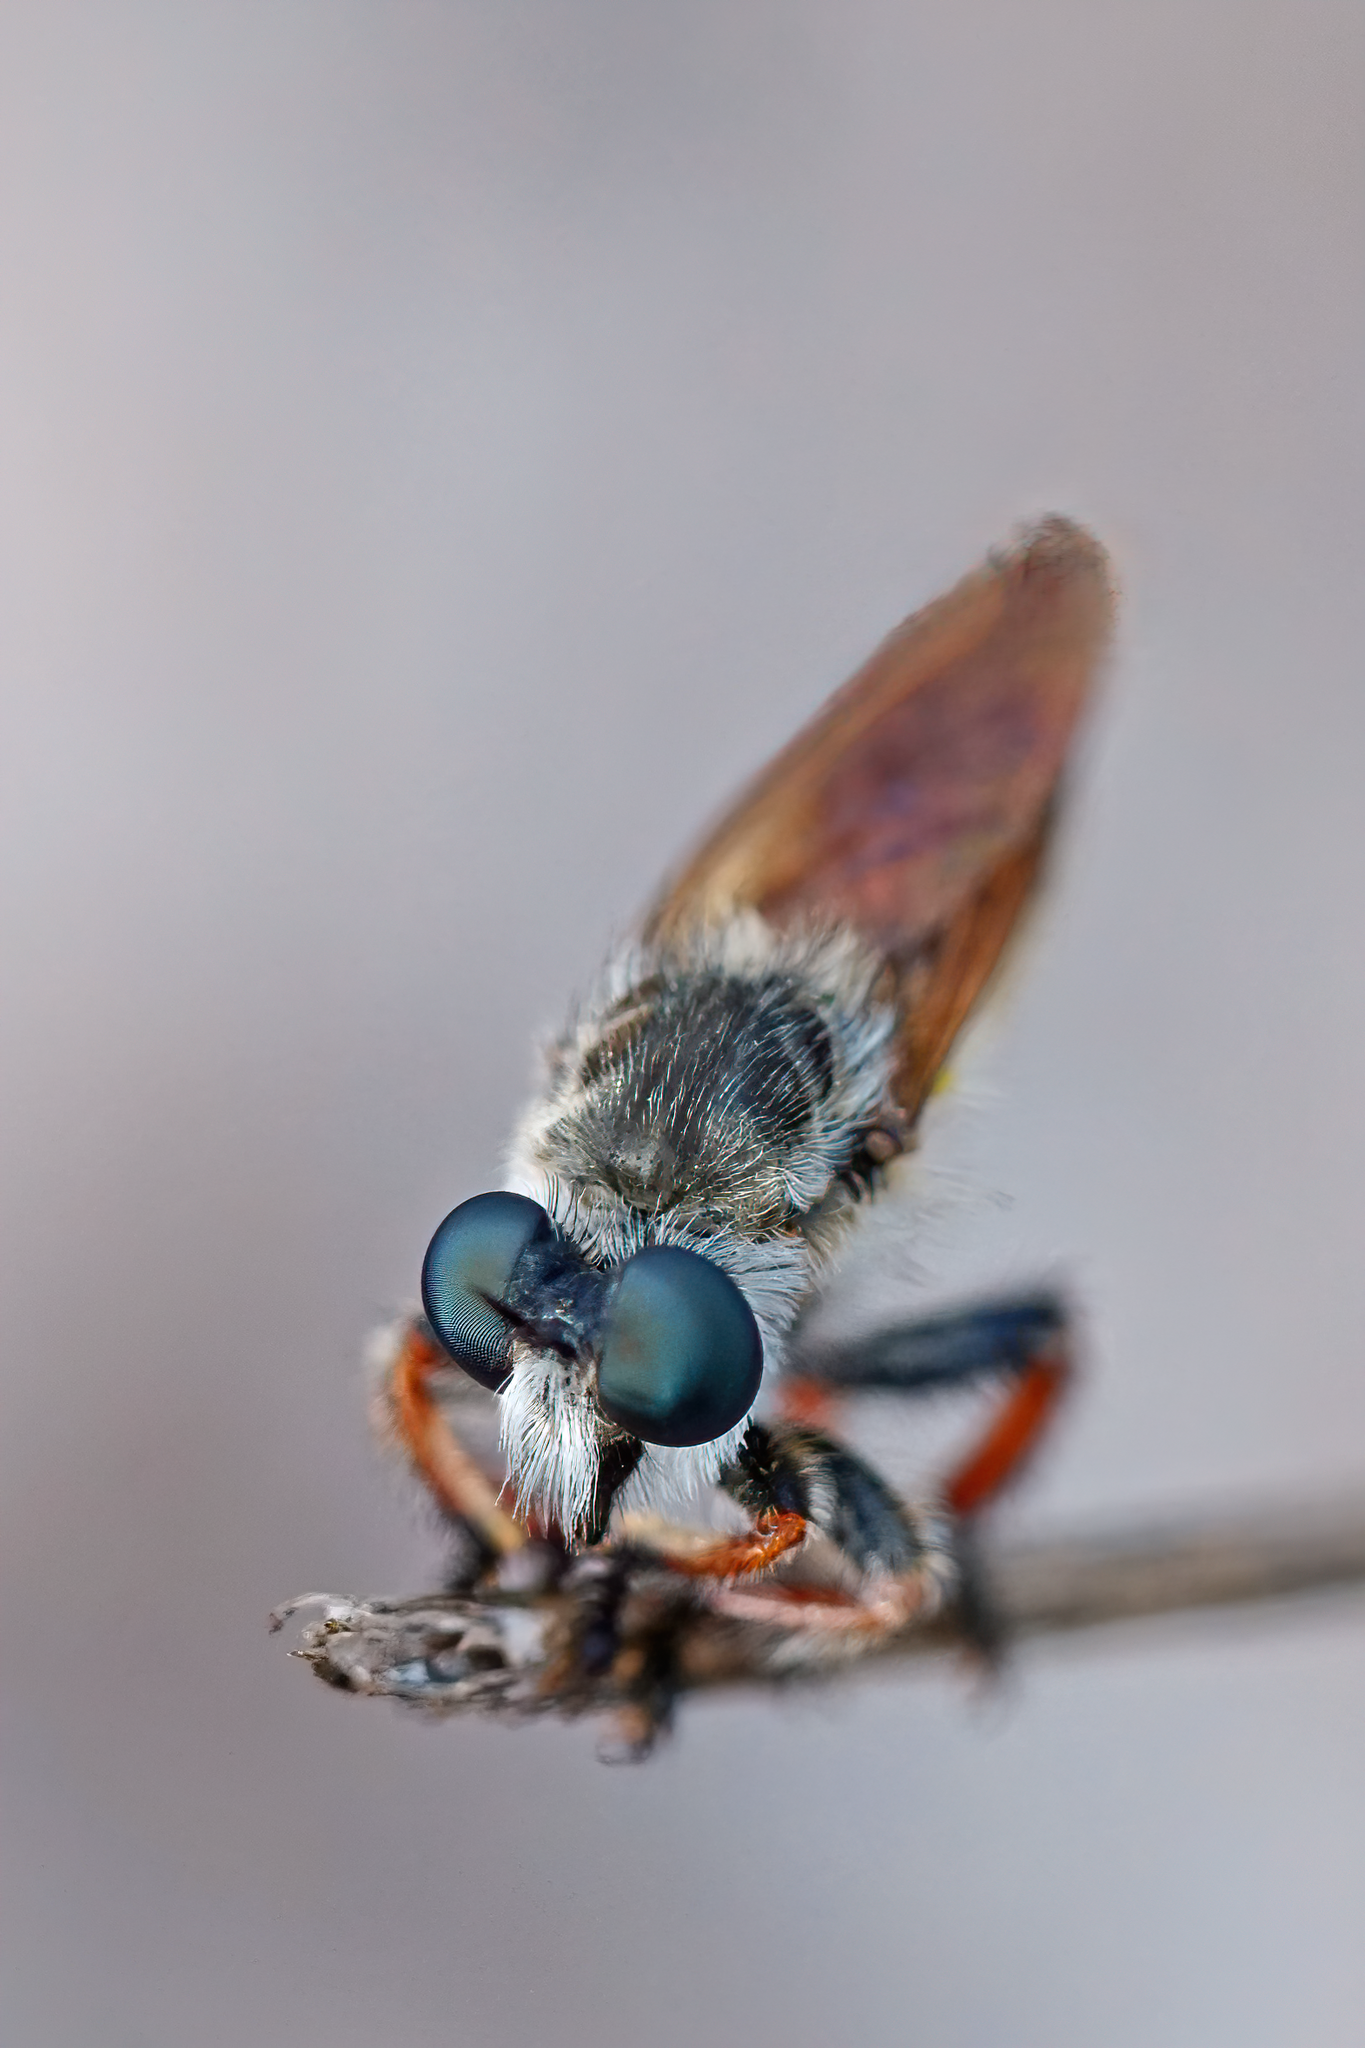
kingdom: Animalia
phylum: Arthropoda
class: Insecta
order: Diptera
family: Asilidae
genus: Megaphorus
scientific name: Megaphorus minutus
